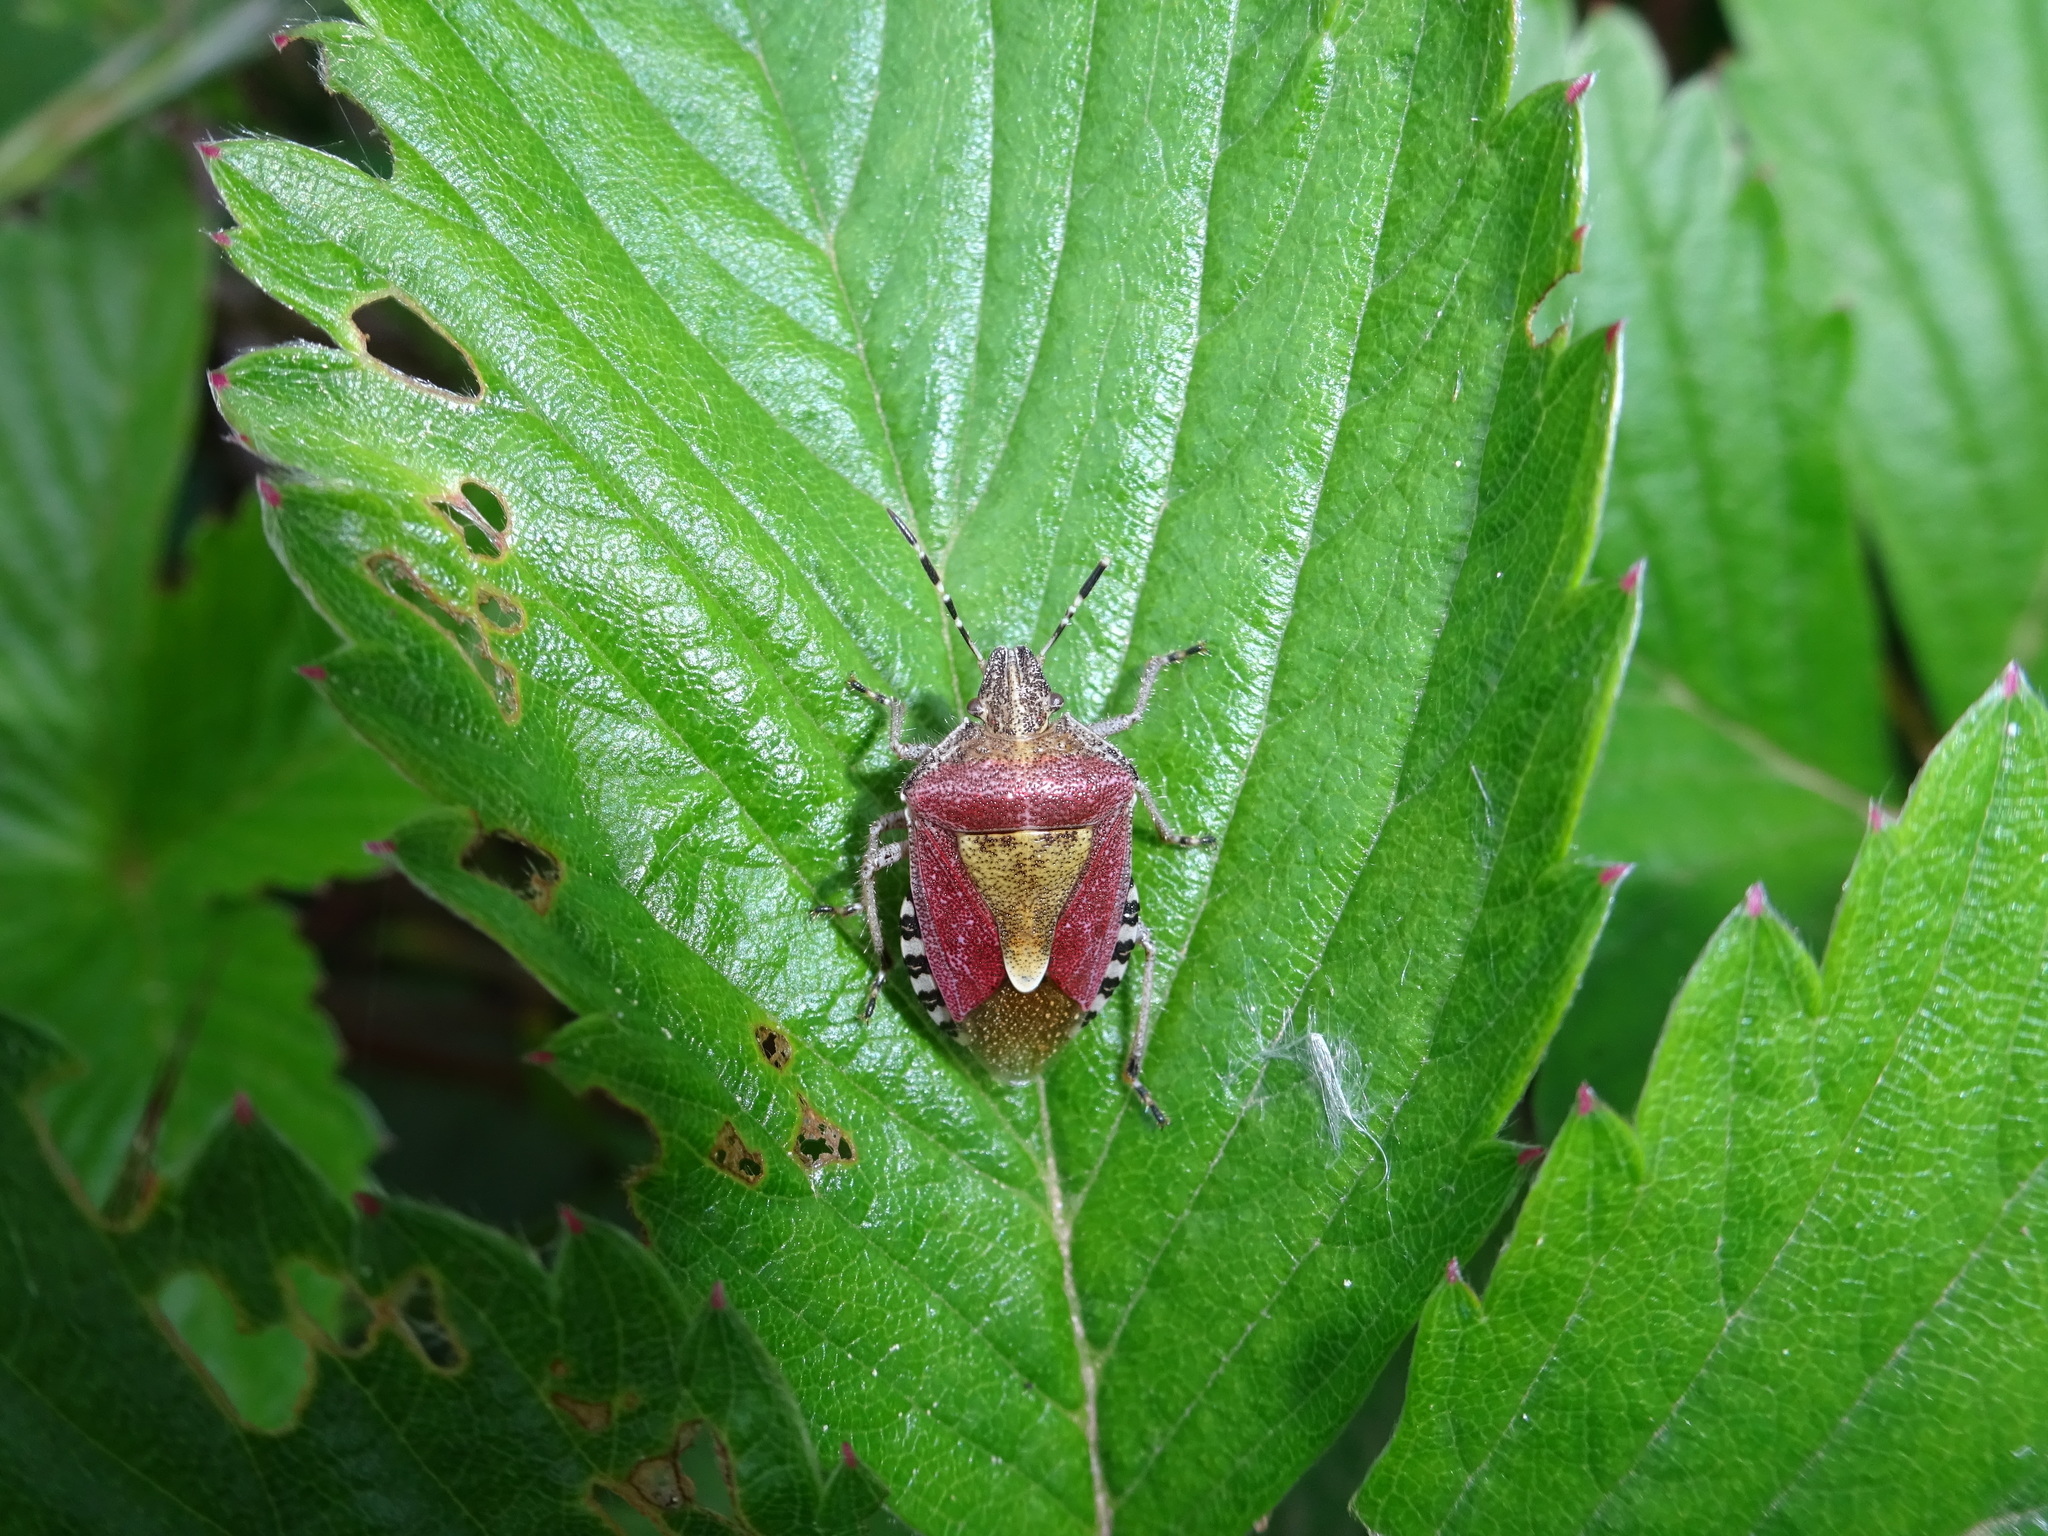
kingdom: Animalia
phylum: Arthropoda
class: Insecta
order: Hemiptera
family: Pentatomidae
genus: Dolycoris
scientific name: Dolycoris baccarum
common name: Sloe bug
